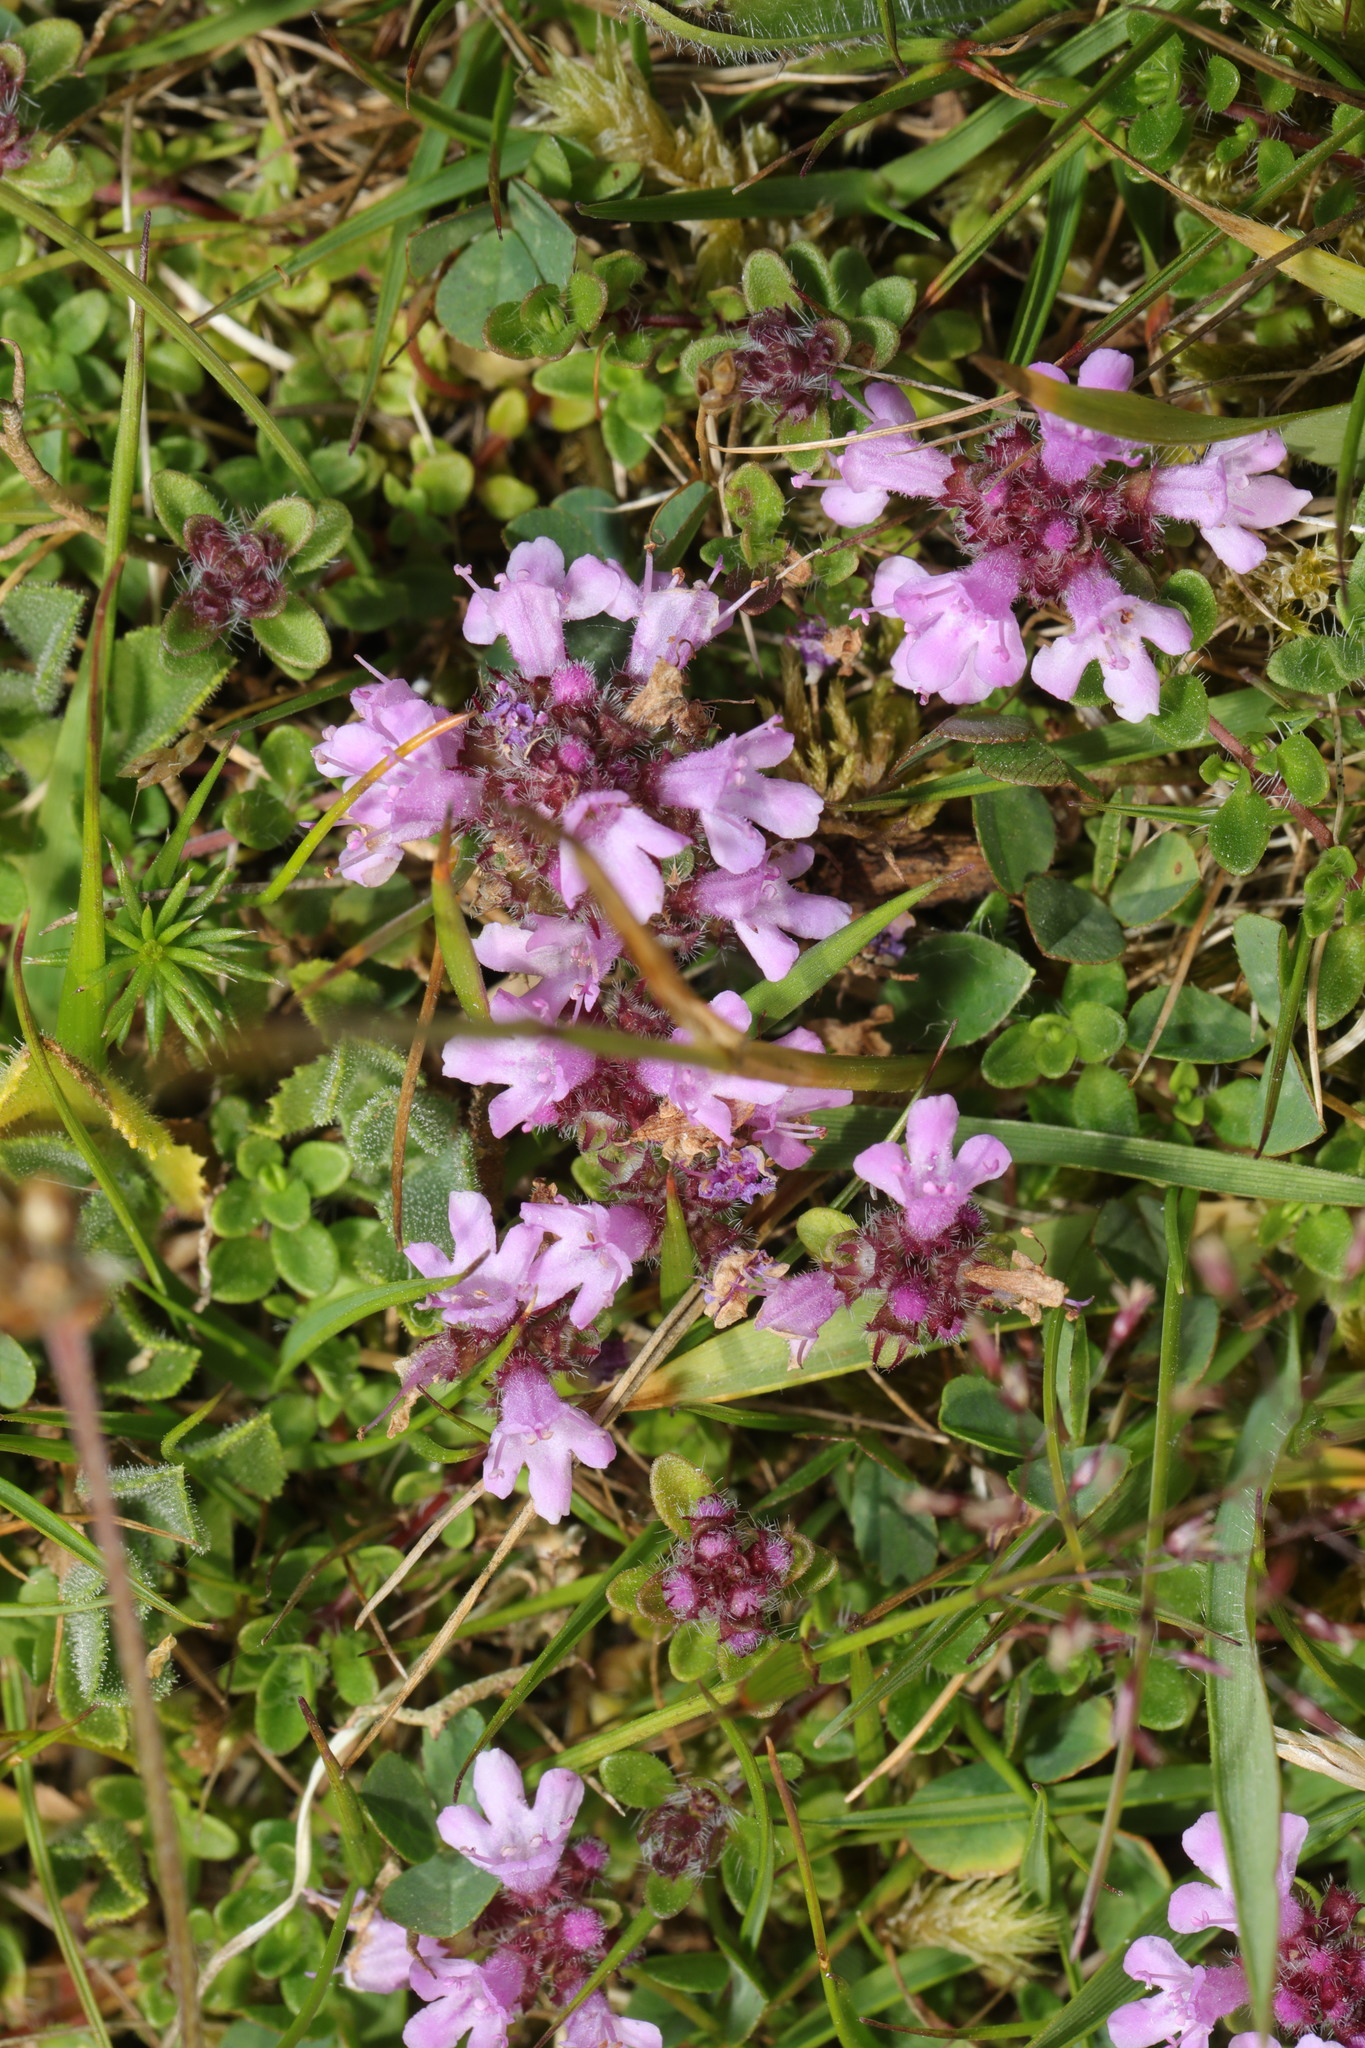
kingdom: Plantae
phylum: Tracheophyta
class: Magnoliopsida
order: Lamiales
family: Lamiaceae
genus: Thymus
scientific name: Thymus praecox
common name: Wild thyme
